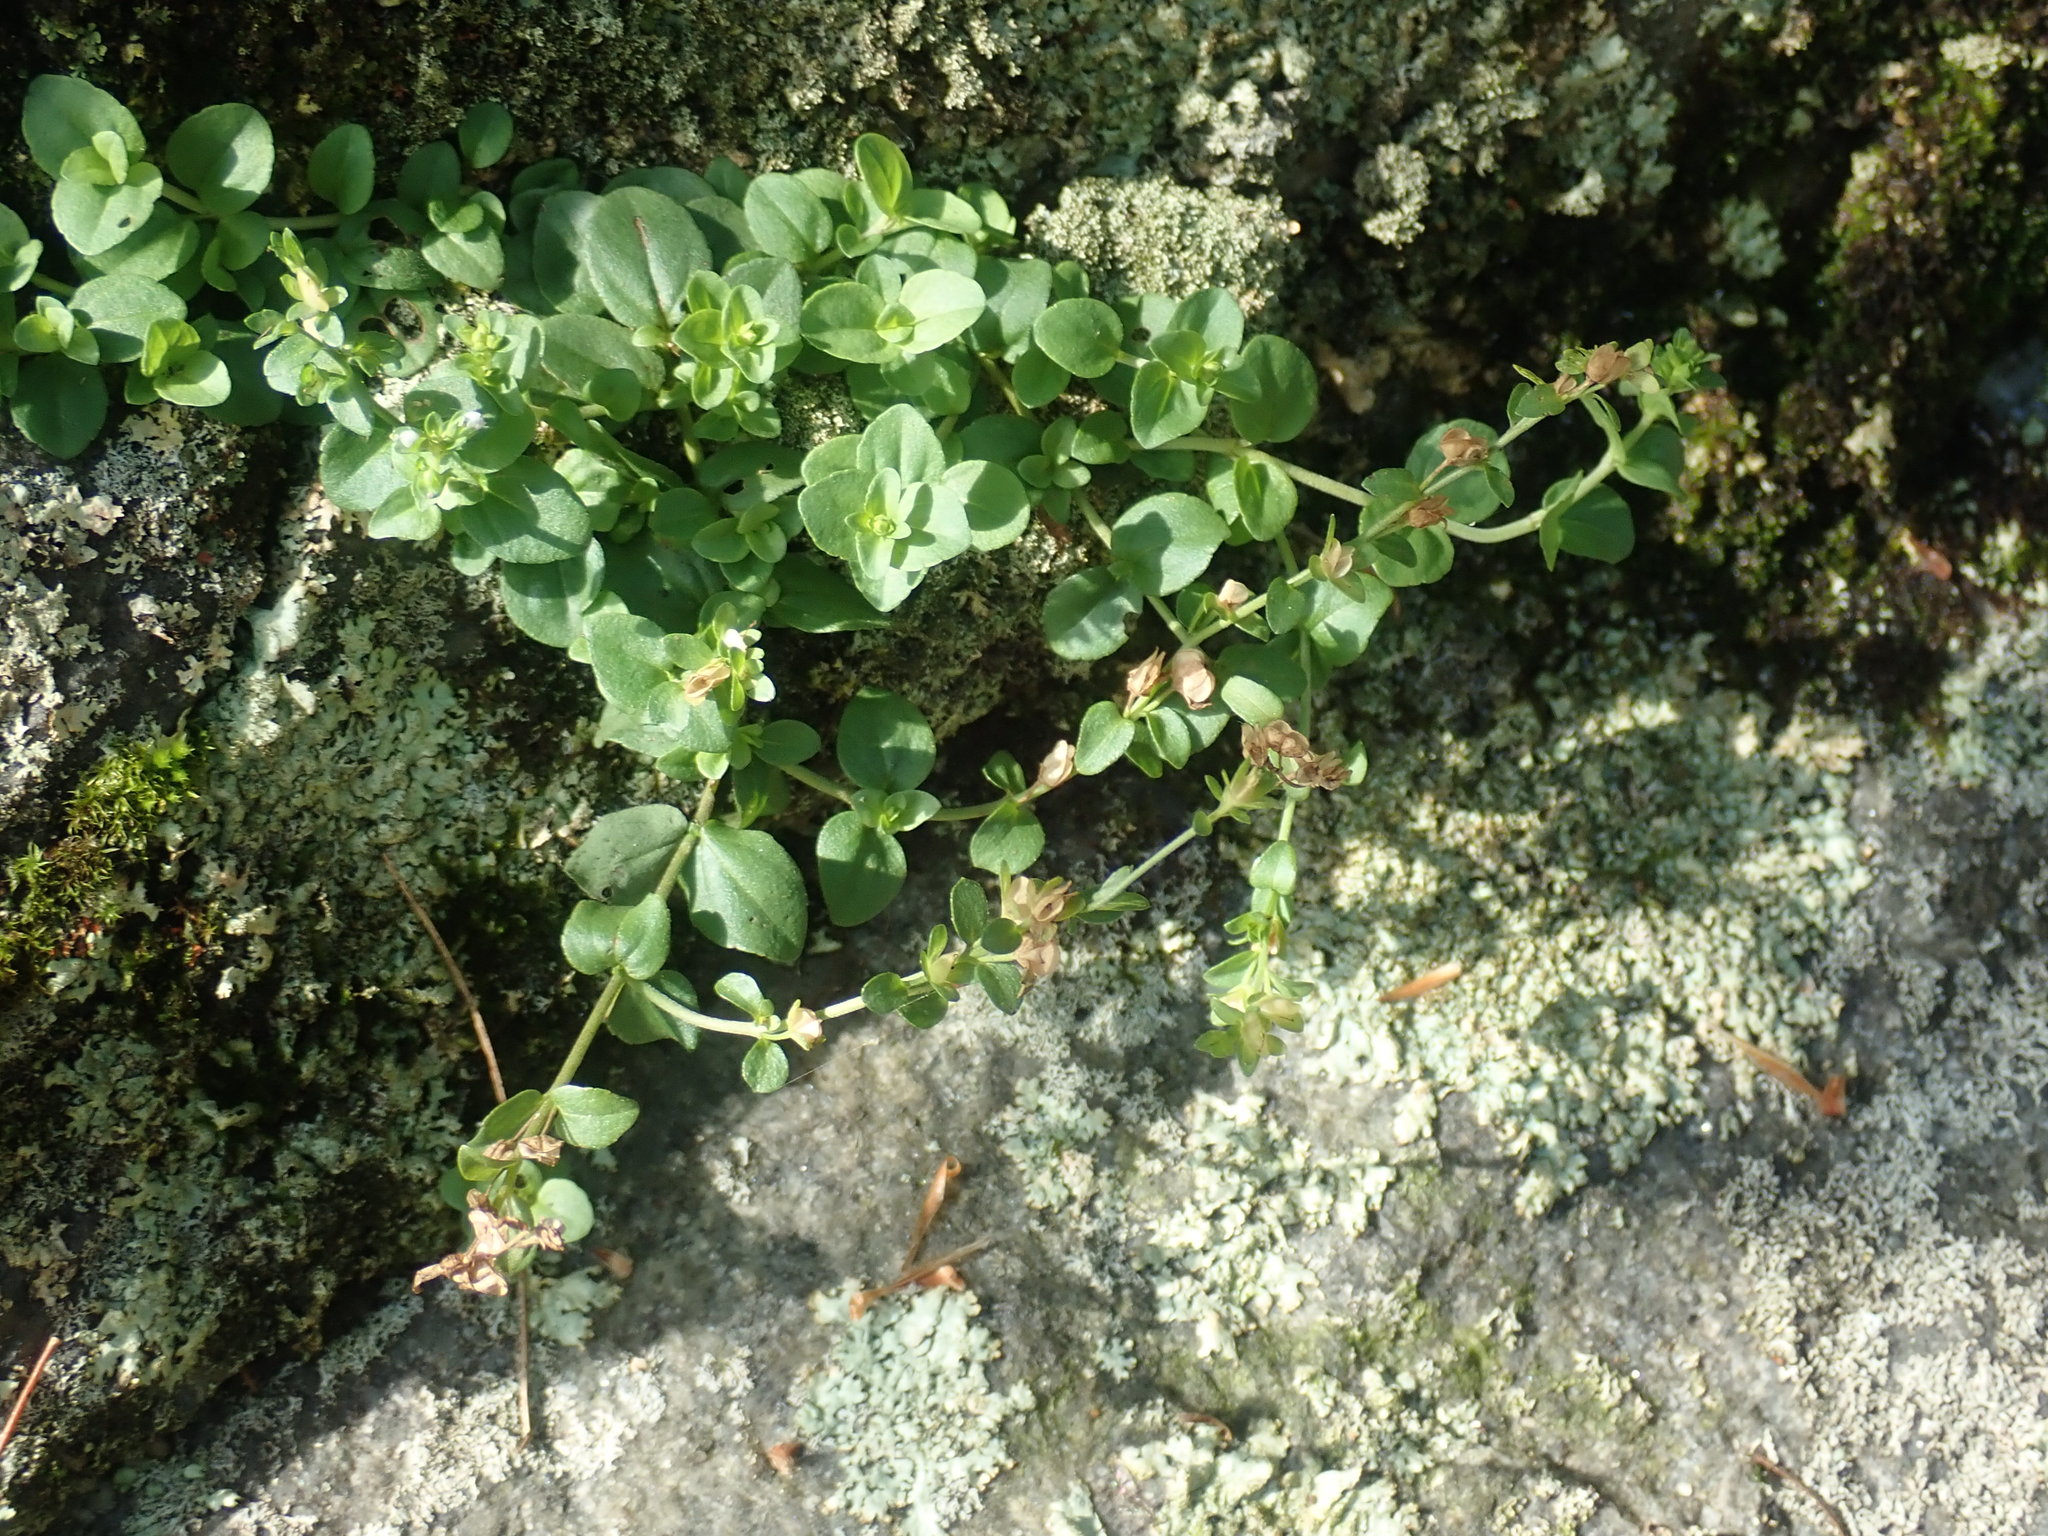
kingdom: Plantae
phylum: Tracheophyta
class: Magnoliopsida
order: Lamiales
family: Plantaginaceae
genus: Veronica
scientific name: Veronica serpyllifolia
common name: Thyme-leaved speedwell
